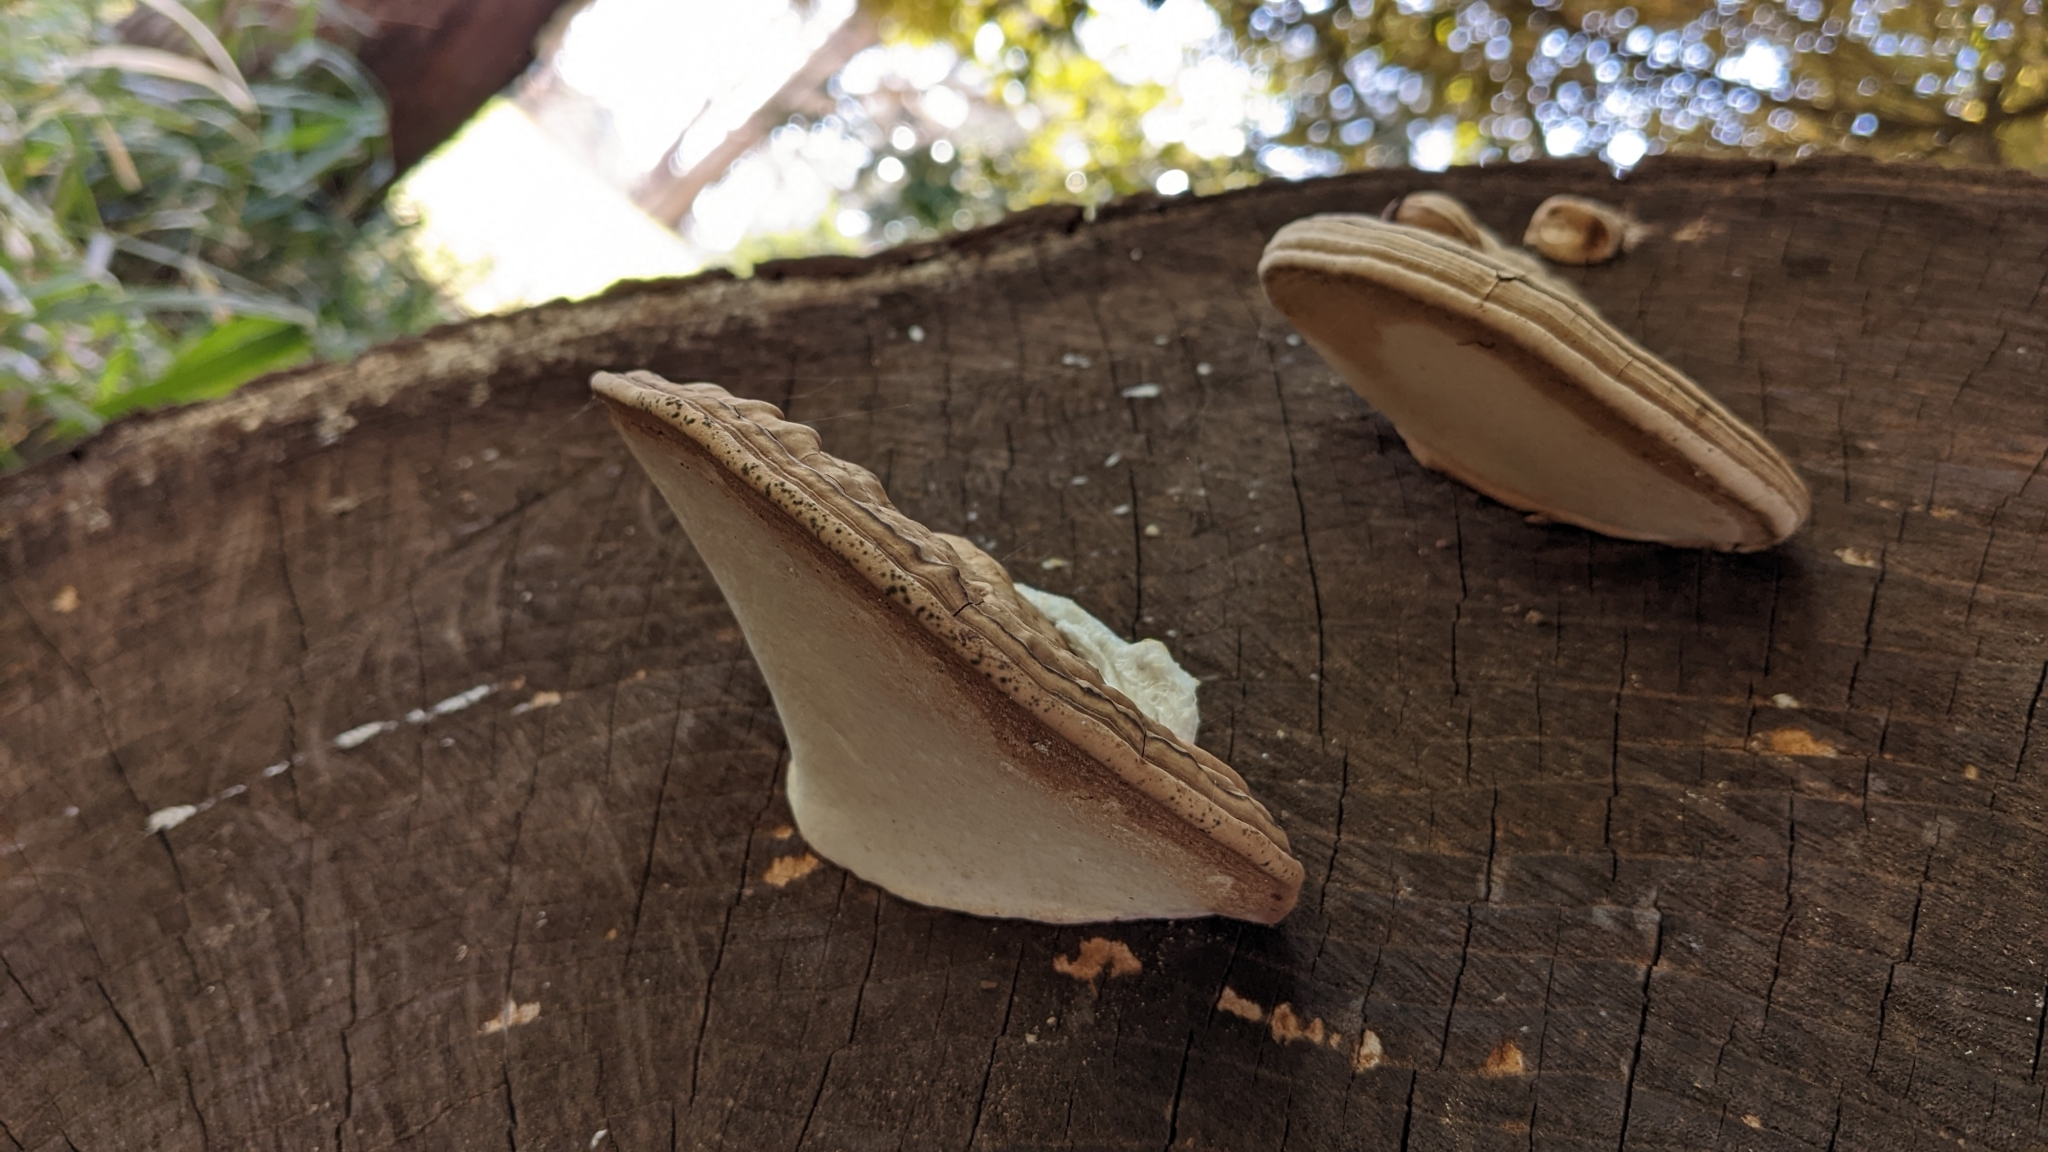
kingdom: Fungi
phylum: Basidiomycota
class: Agaricomycetes
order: Polyporales
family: Polyporaceae
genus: Ganoderma
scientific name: Ganoderma applanatum
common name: Artist's bracket
